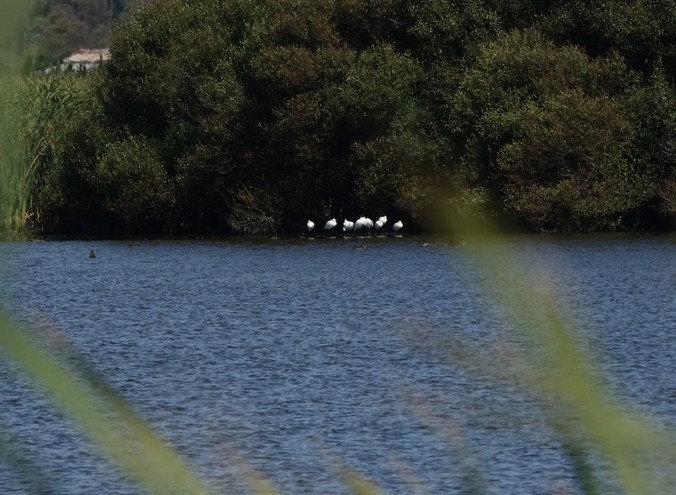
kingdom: Animalia
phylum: Chordata
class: Aves
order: Pelecaniformes
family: Threskiornithidae
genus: Platalea
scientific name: Platalea regia
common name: Royal spoonbill
